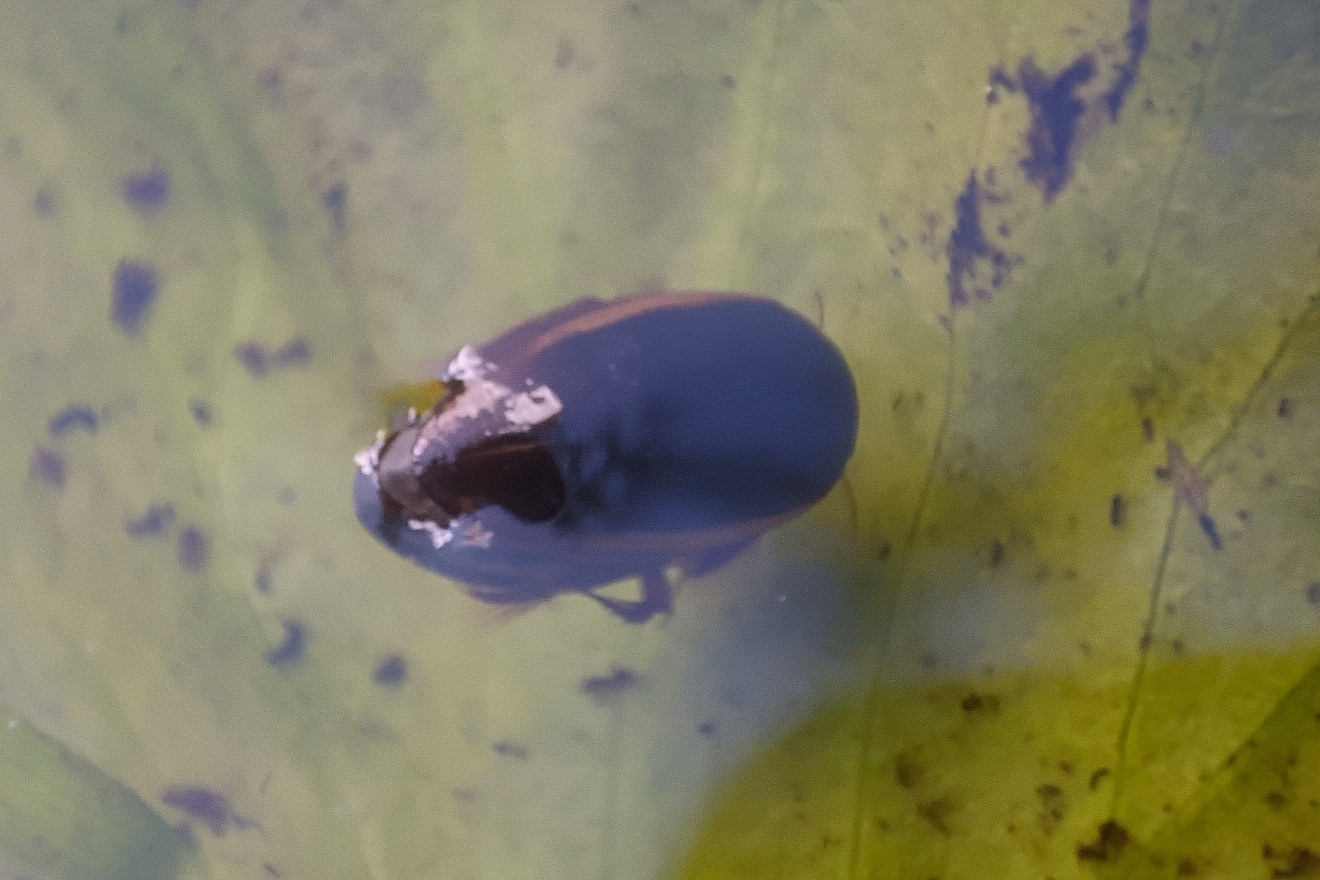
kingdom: Animalia
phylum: Arthropoda
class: Insecta
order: Coleoptera
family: Dytiscidae
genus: Ilybius
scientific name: Ilybius fuliginosus
